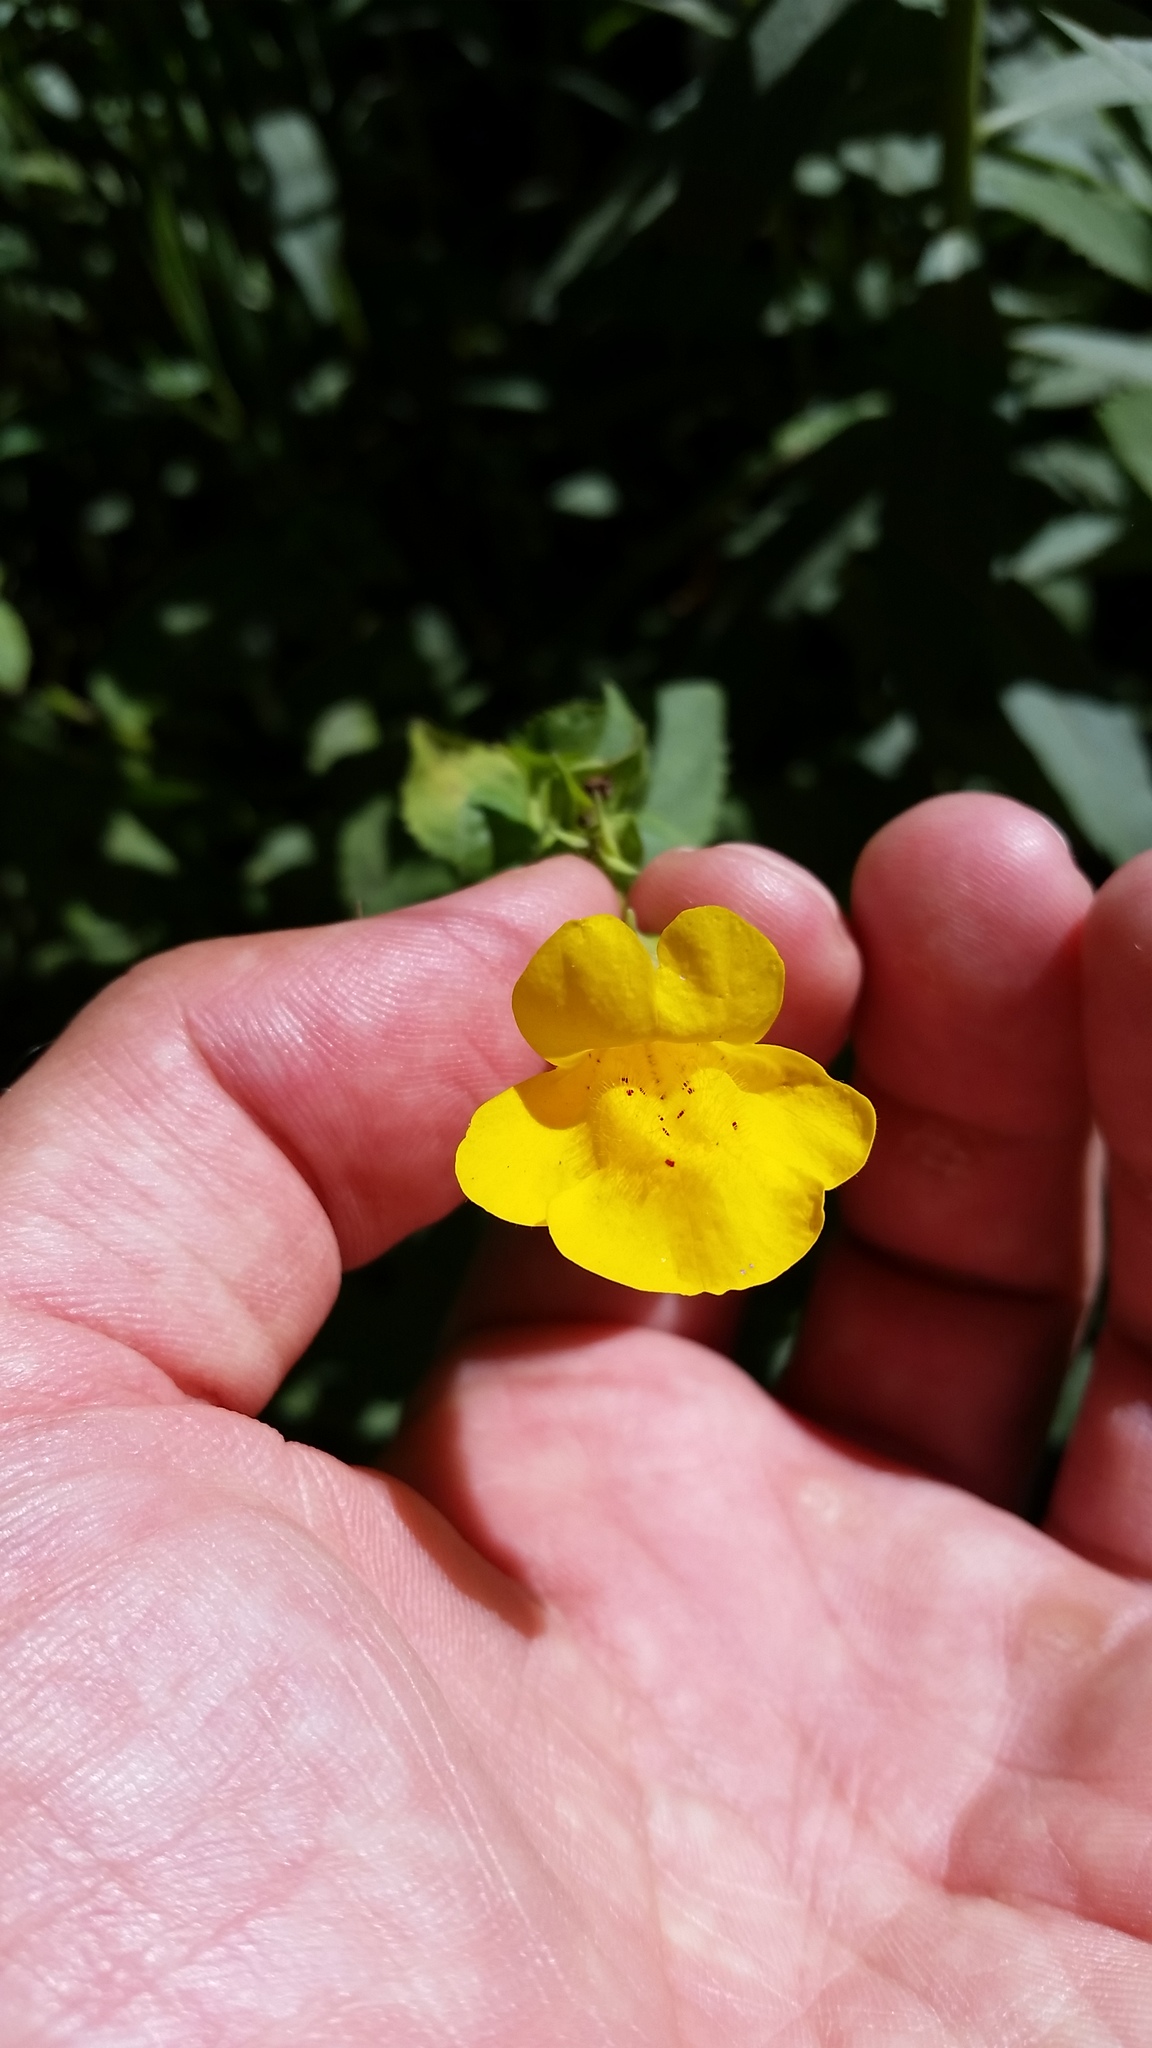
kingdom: Plantae
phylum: Tracheophyta
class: Magnoliopsida
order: Lamiales
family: Phrymaceae
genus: Erythranthe
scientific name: Erythranthe decora
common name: Mannered monkeyflower
